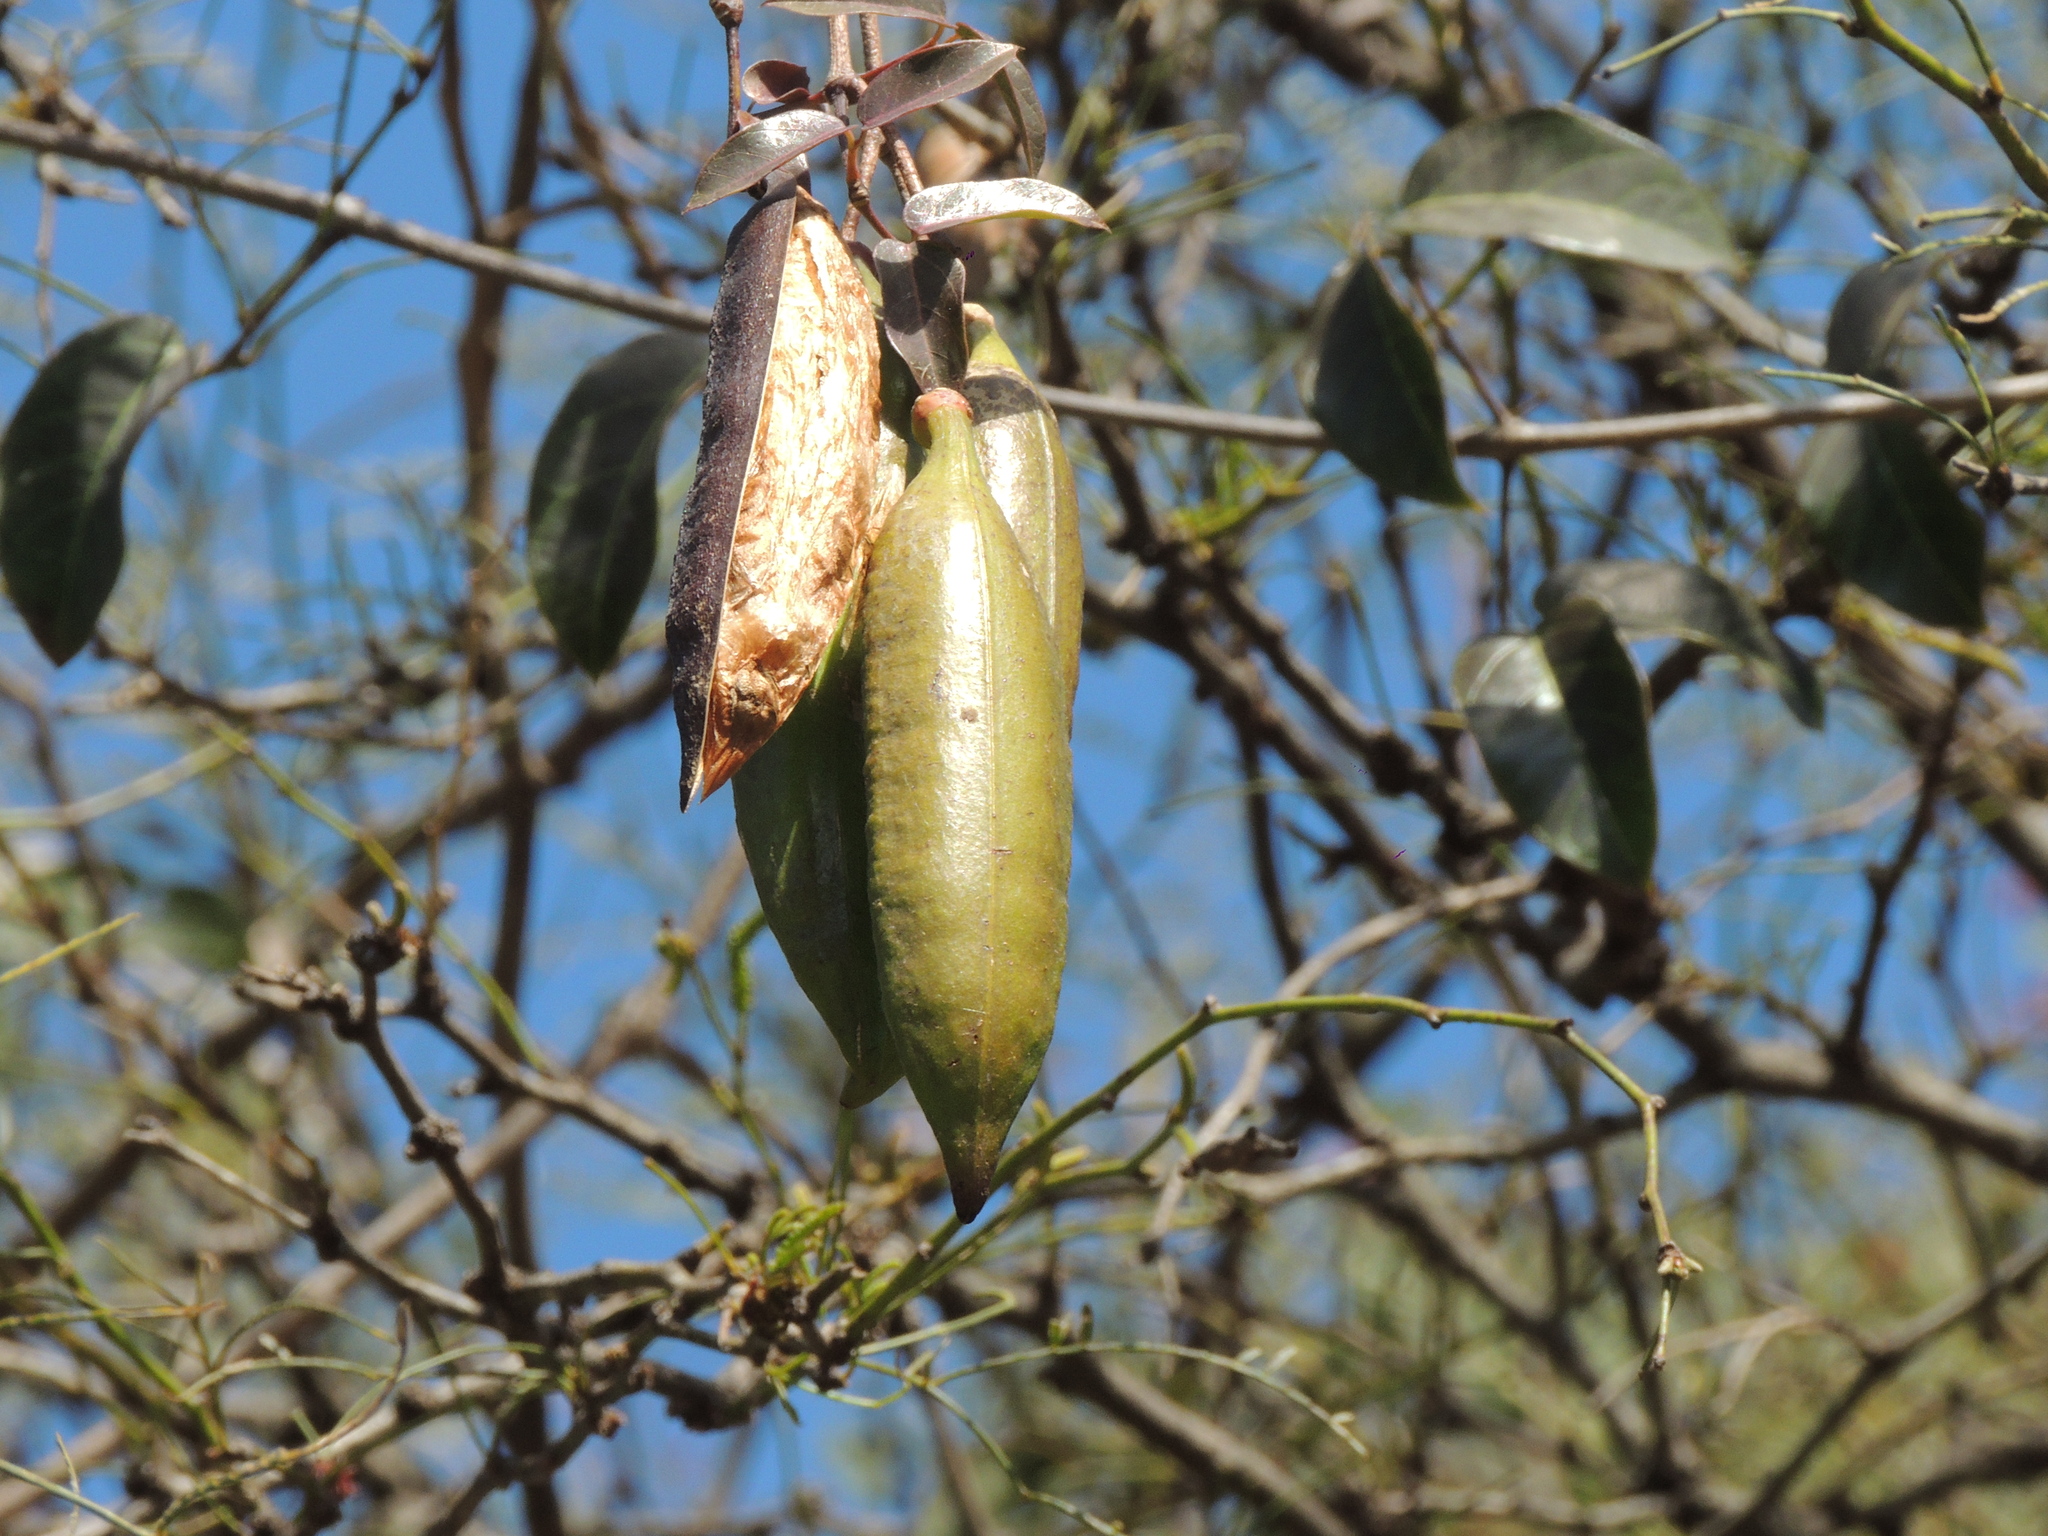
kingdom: Plantae
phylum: Tracheophyta
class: Magnoliopsida
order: Lamiales
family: Bignoniaceae
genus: Dolichandra
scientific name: Dolichandra cynanchoides
